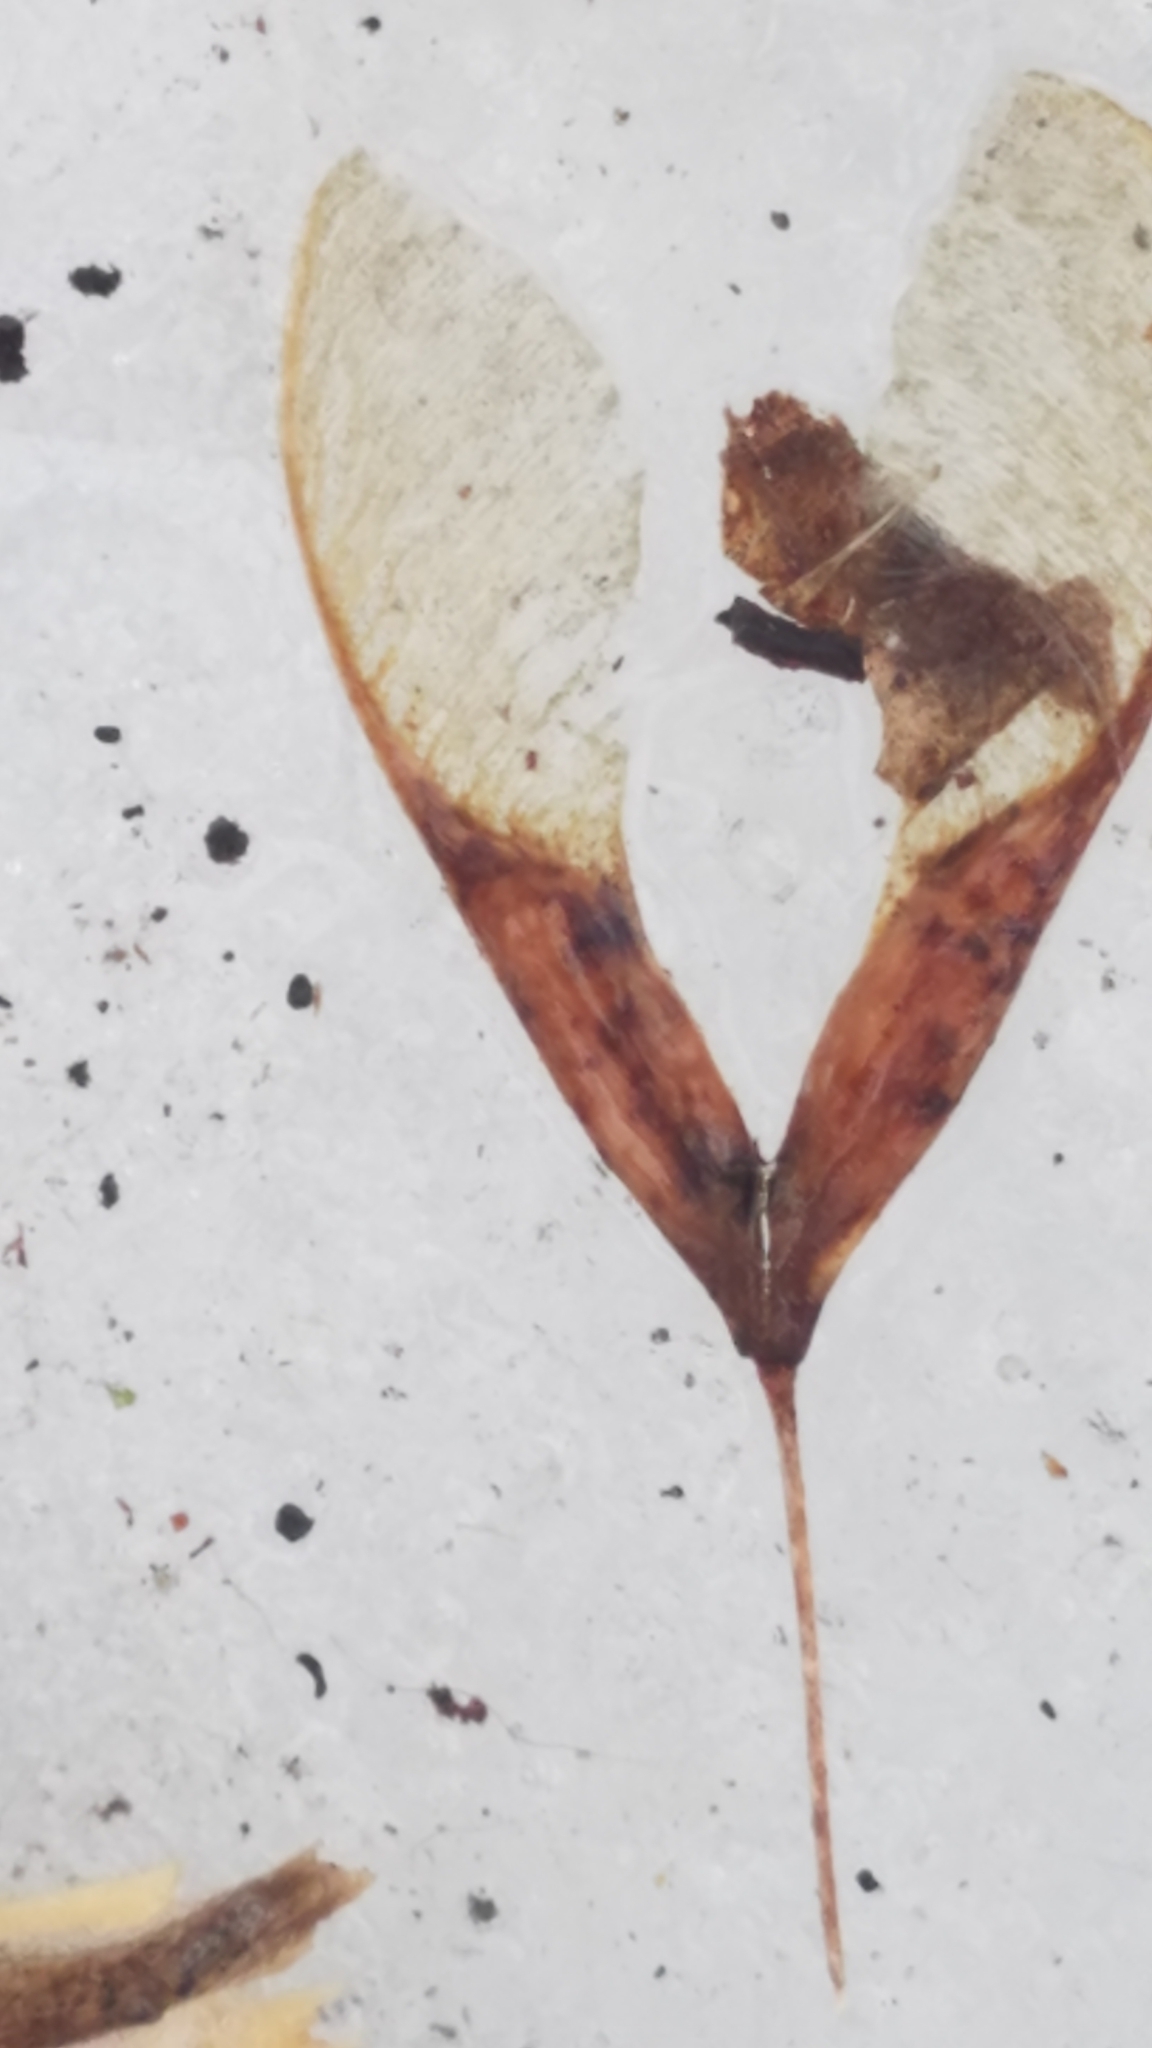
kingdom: Plantae
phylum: Tracheophyta
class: Magnoliopsida
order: Sapindales
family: Sapindaceae
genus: Acer
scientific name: Acer negundo
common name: Ashleaf maple
